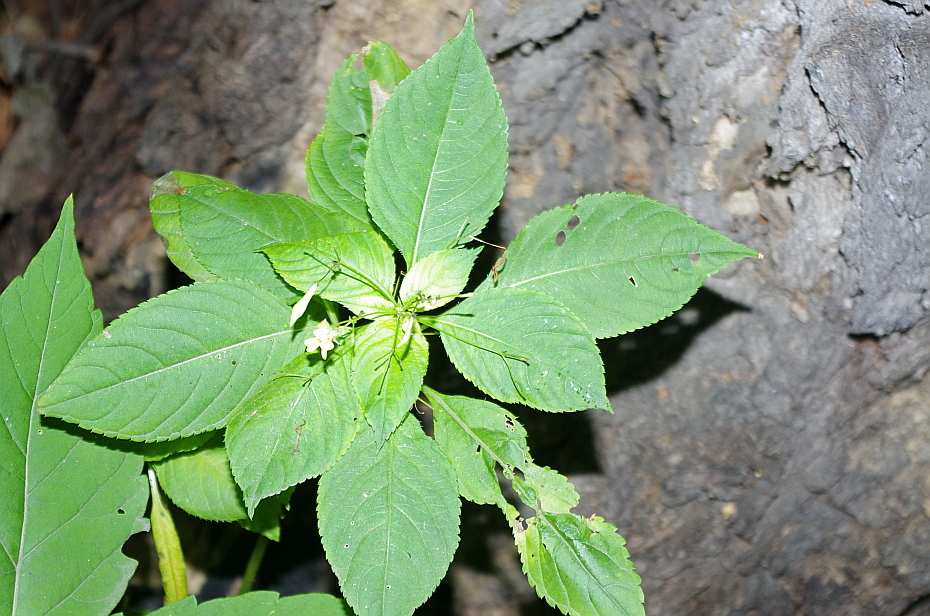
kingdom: Plantae
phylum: Tracheophyta
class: Magnoliopsida
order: Ericales
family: Balsaminaceae
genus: Impatiens
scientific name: Impatiens parviflora
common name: Small balsam
